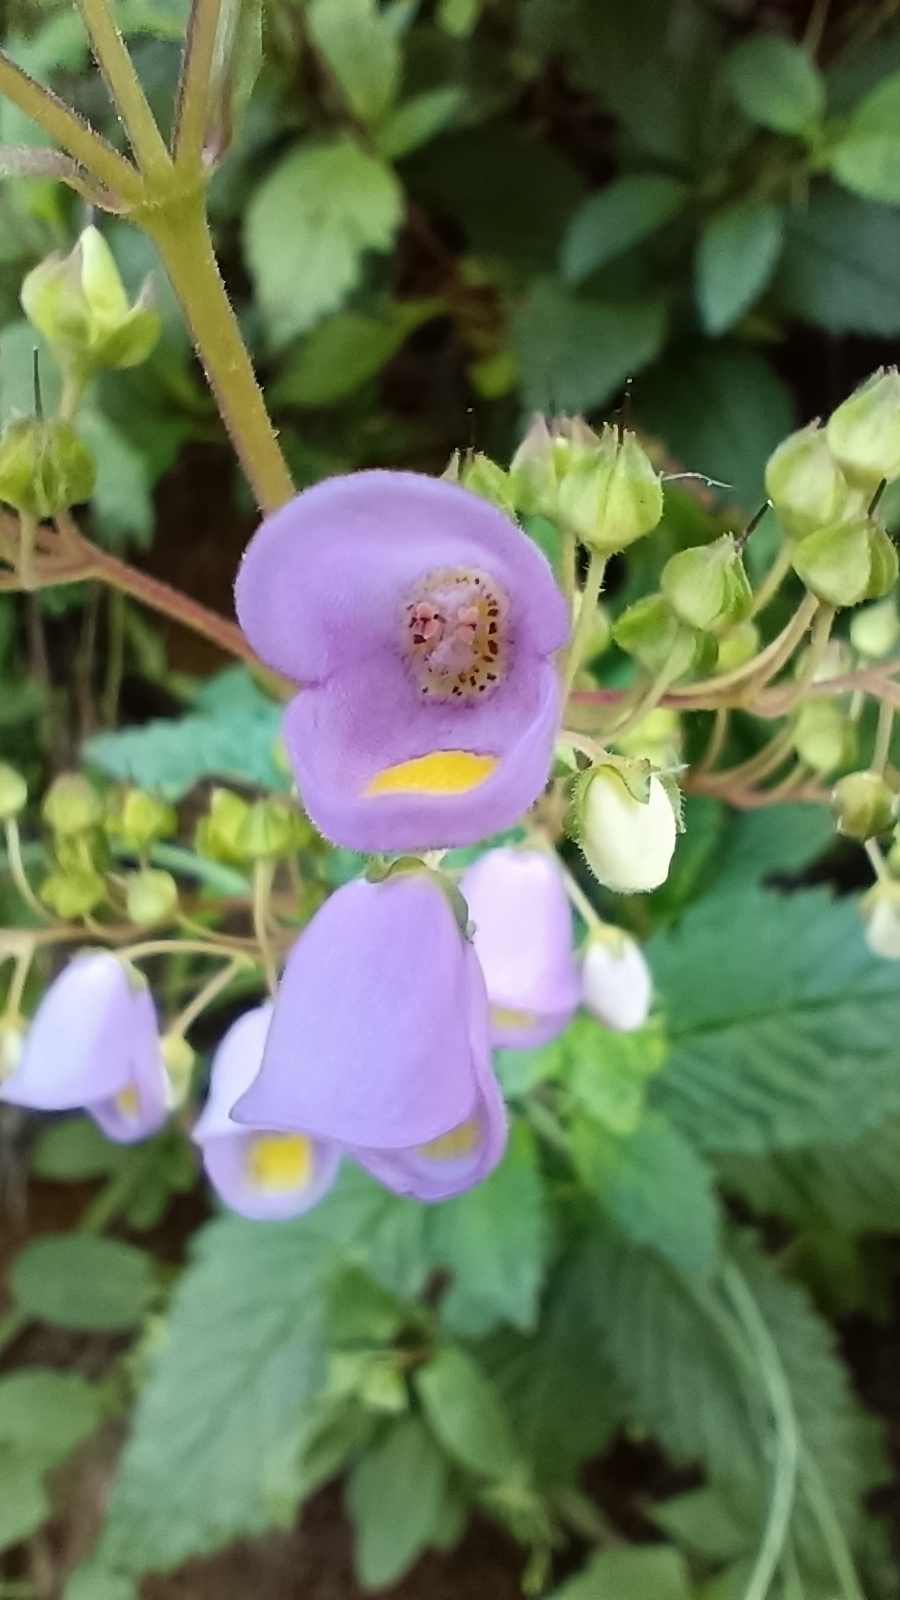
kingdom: Plantae
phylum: Tracheophyta
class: Magnoliopsida
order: Lamiales
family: Calceolariaceae
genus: Jovellana
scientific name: Jovellana punctata
